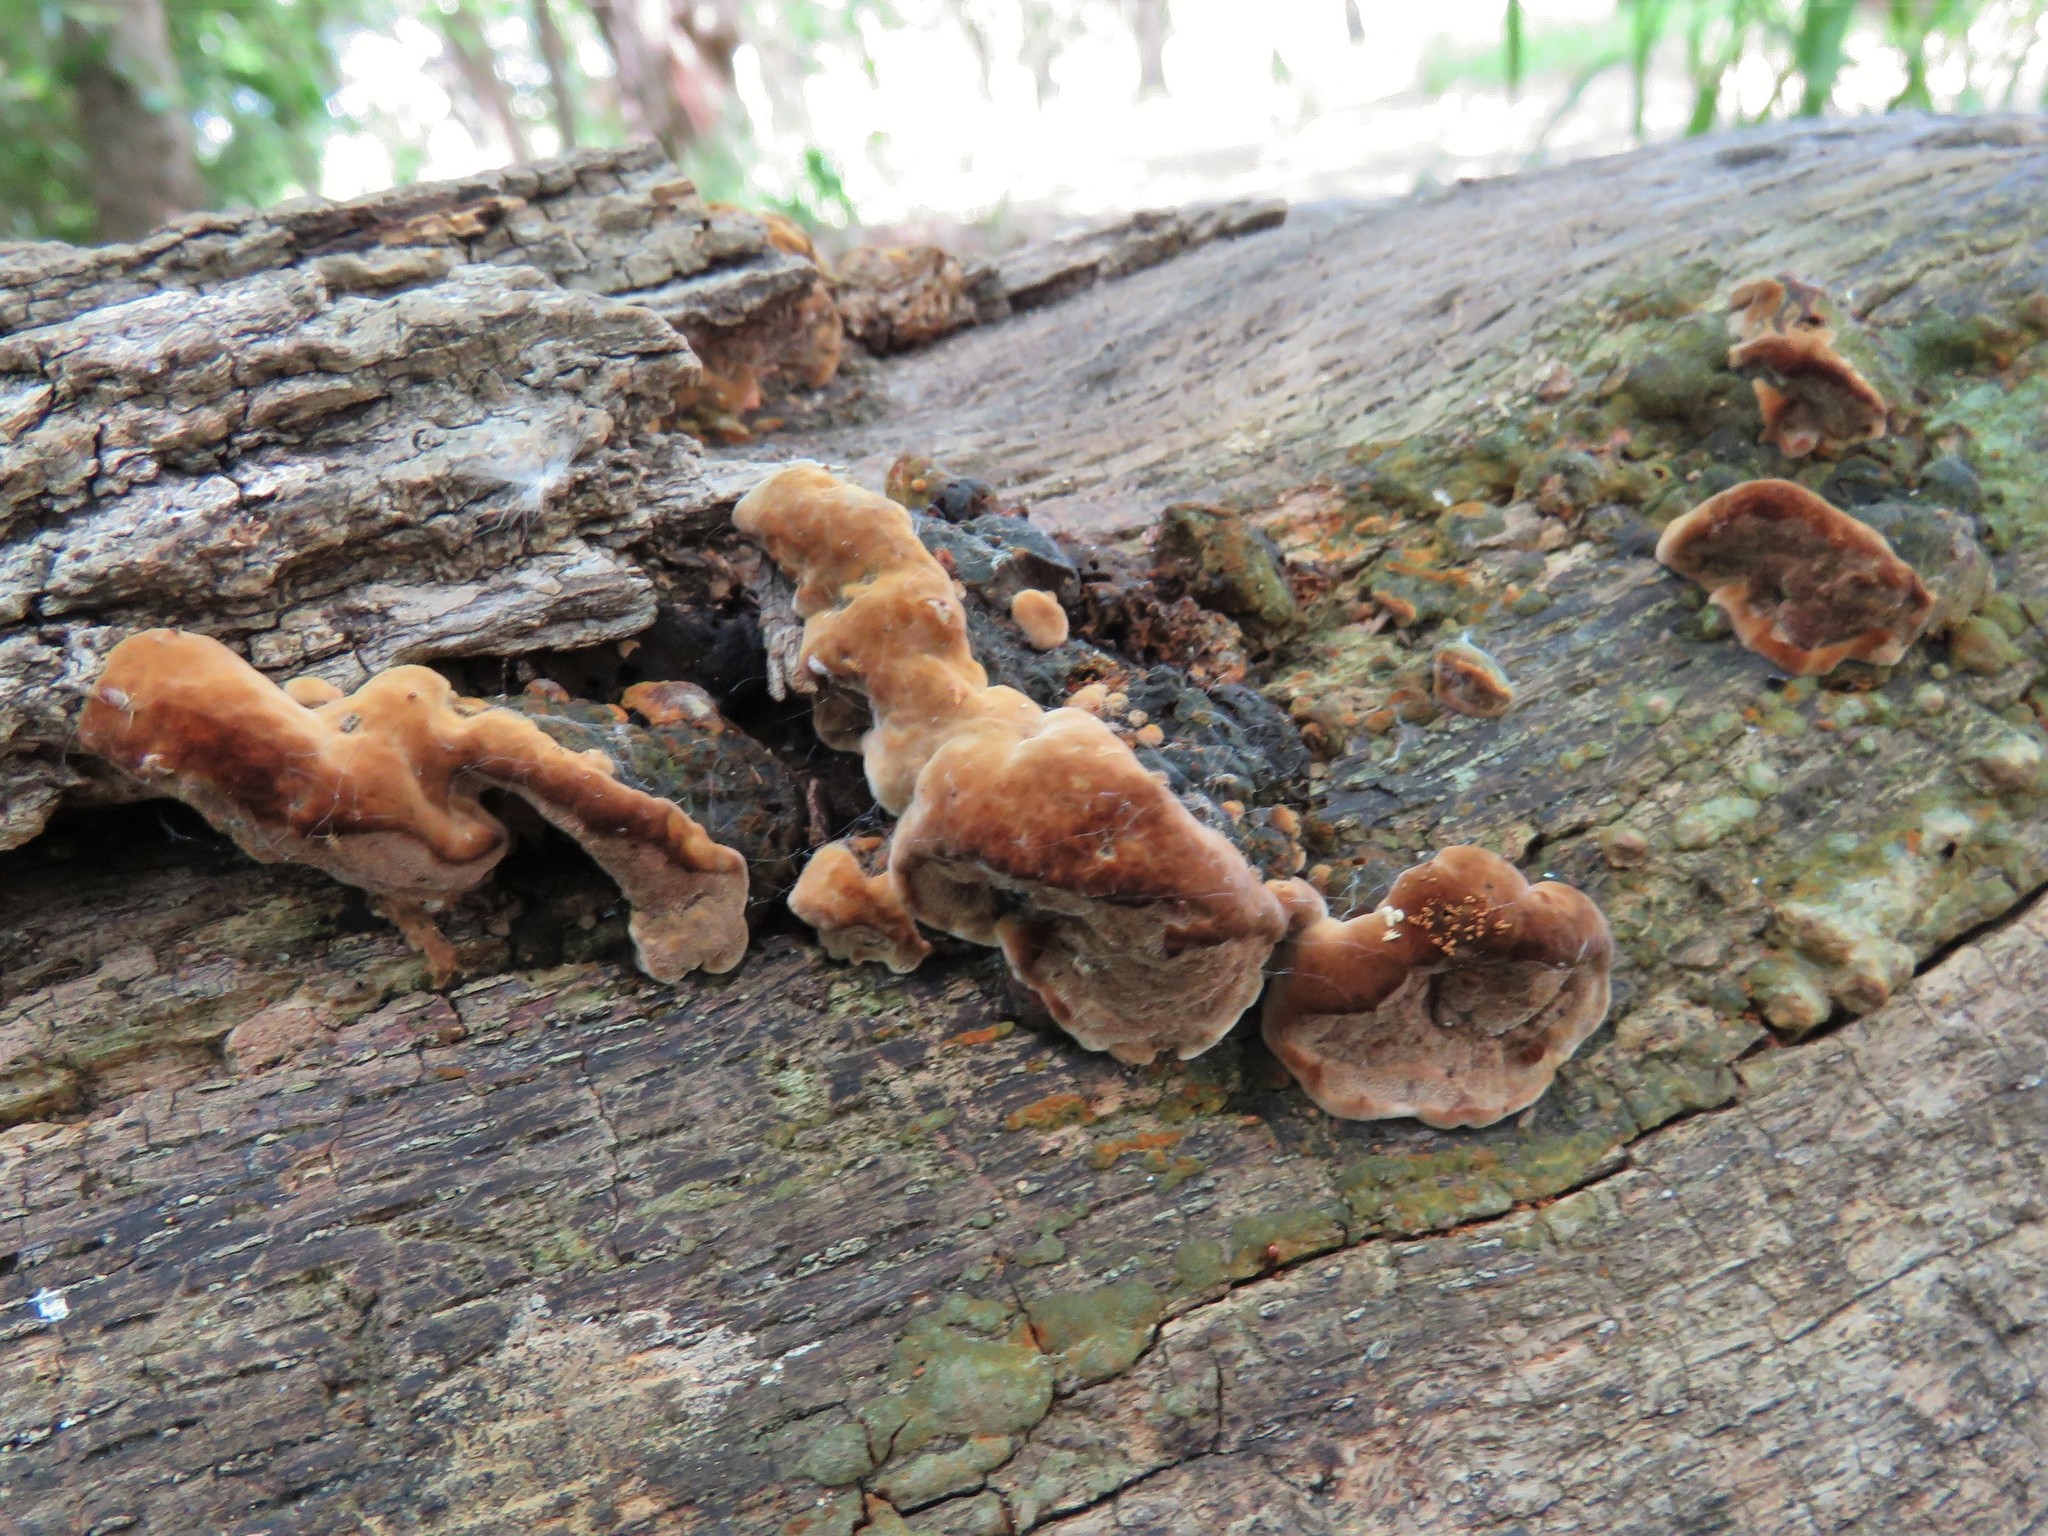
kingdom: Fungi
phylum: Basidiomycota
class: Agaricomycetes
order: Hymenochaetales
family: Hymenochaetaceae
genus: Phellinus
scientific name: Phellinus gilvus
